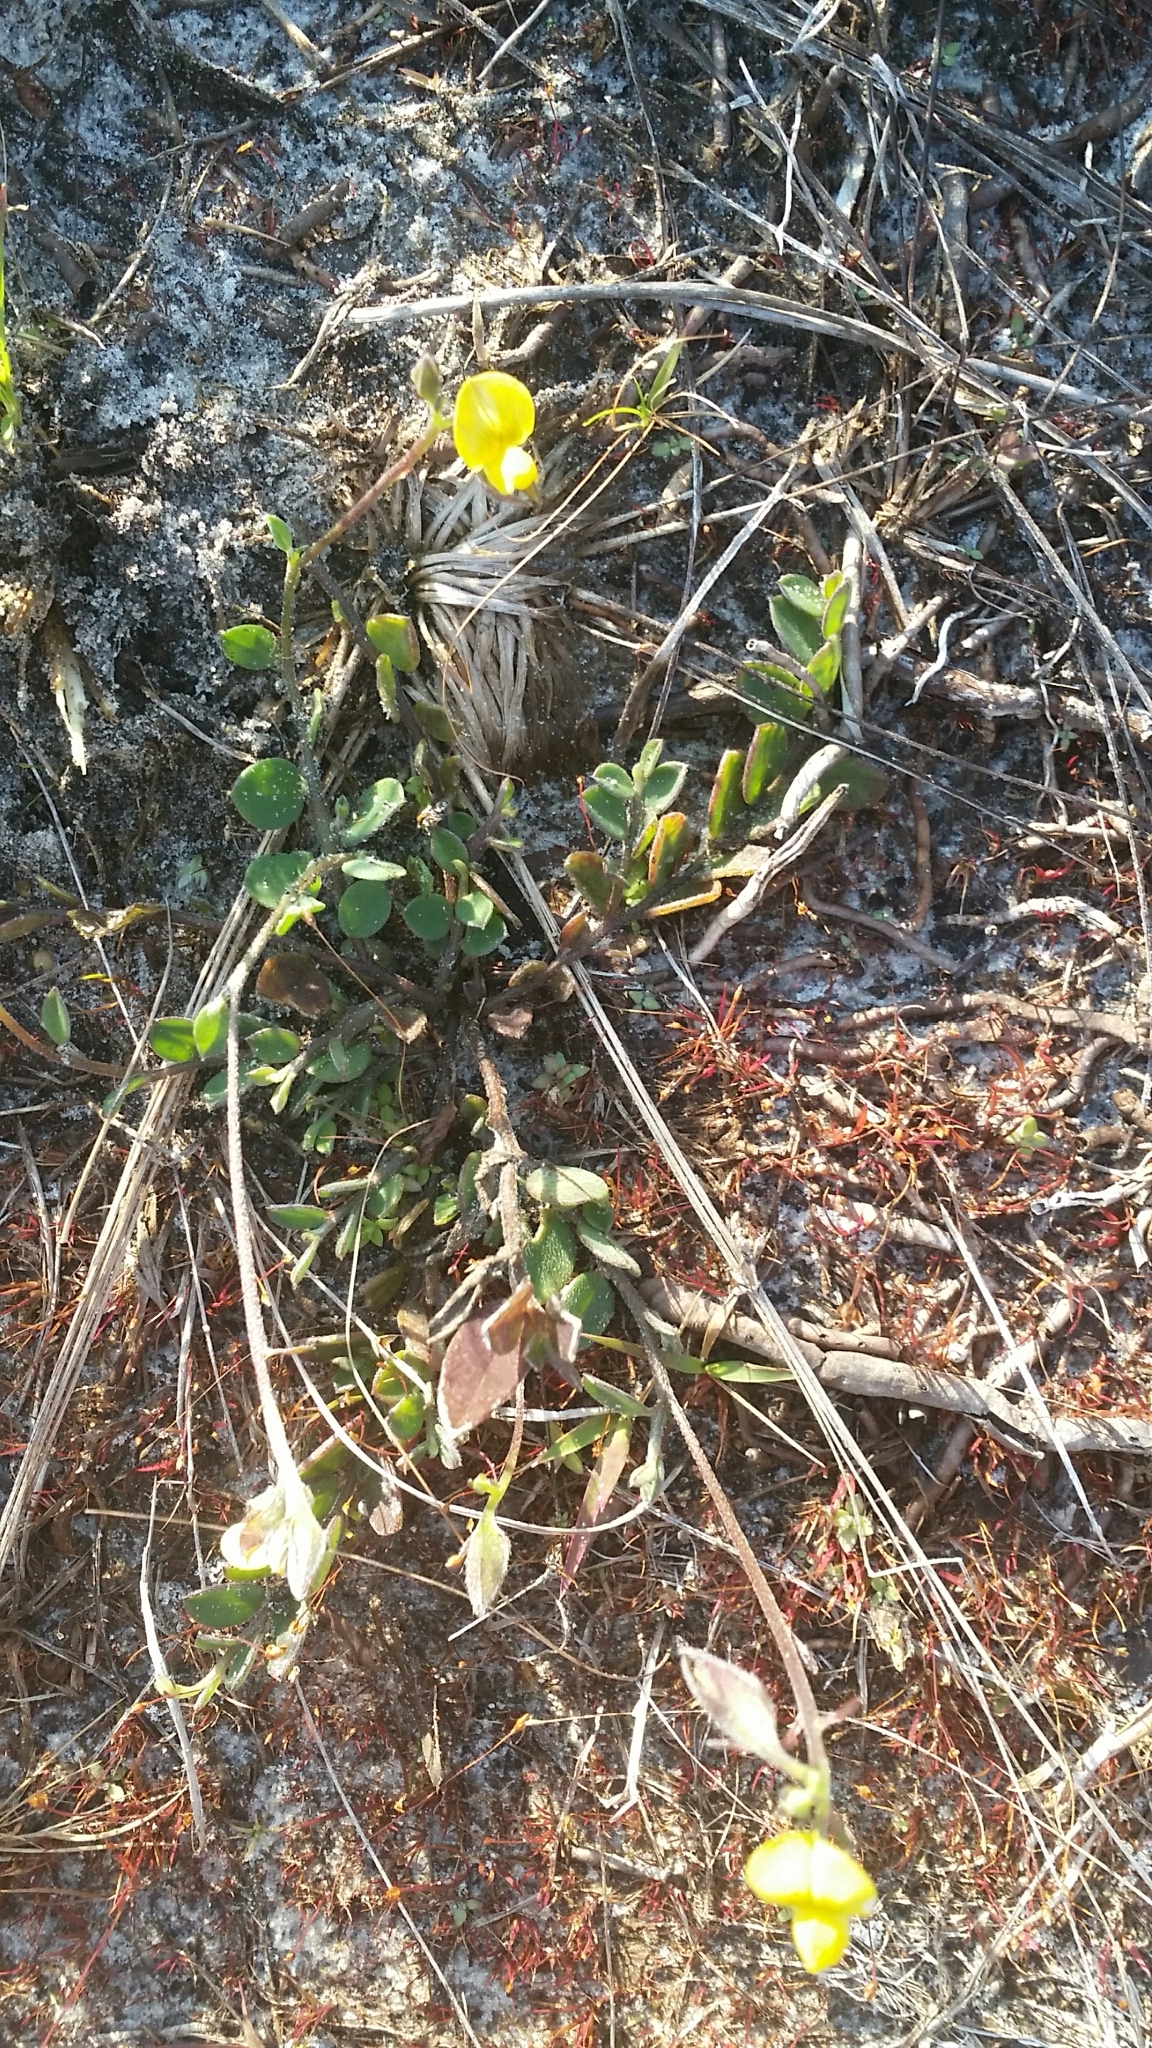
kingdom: Plantae
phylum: Tracheophyta
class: Magnoliopsida
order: Fabales
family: Fabaceae
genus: Crotalaria
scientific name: Crotalaria rotundifolia
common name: Prostrate rattlebox
